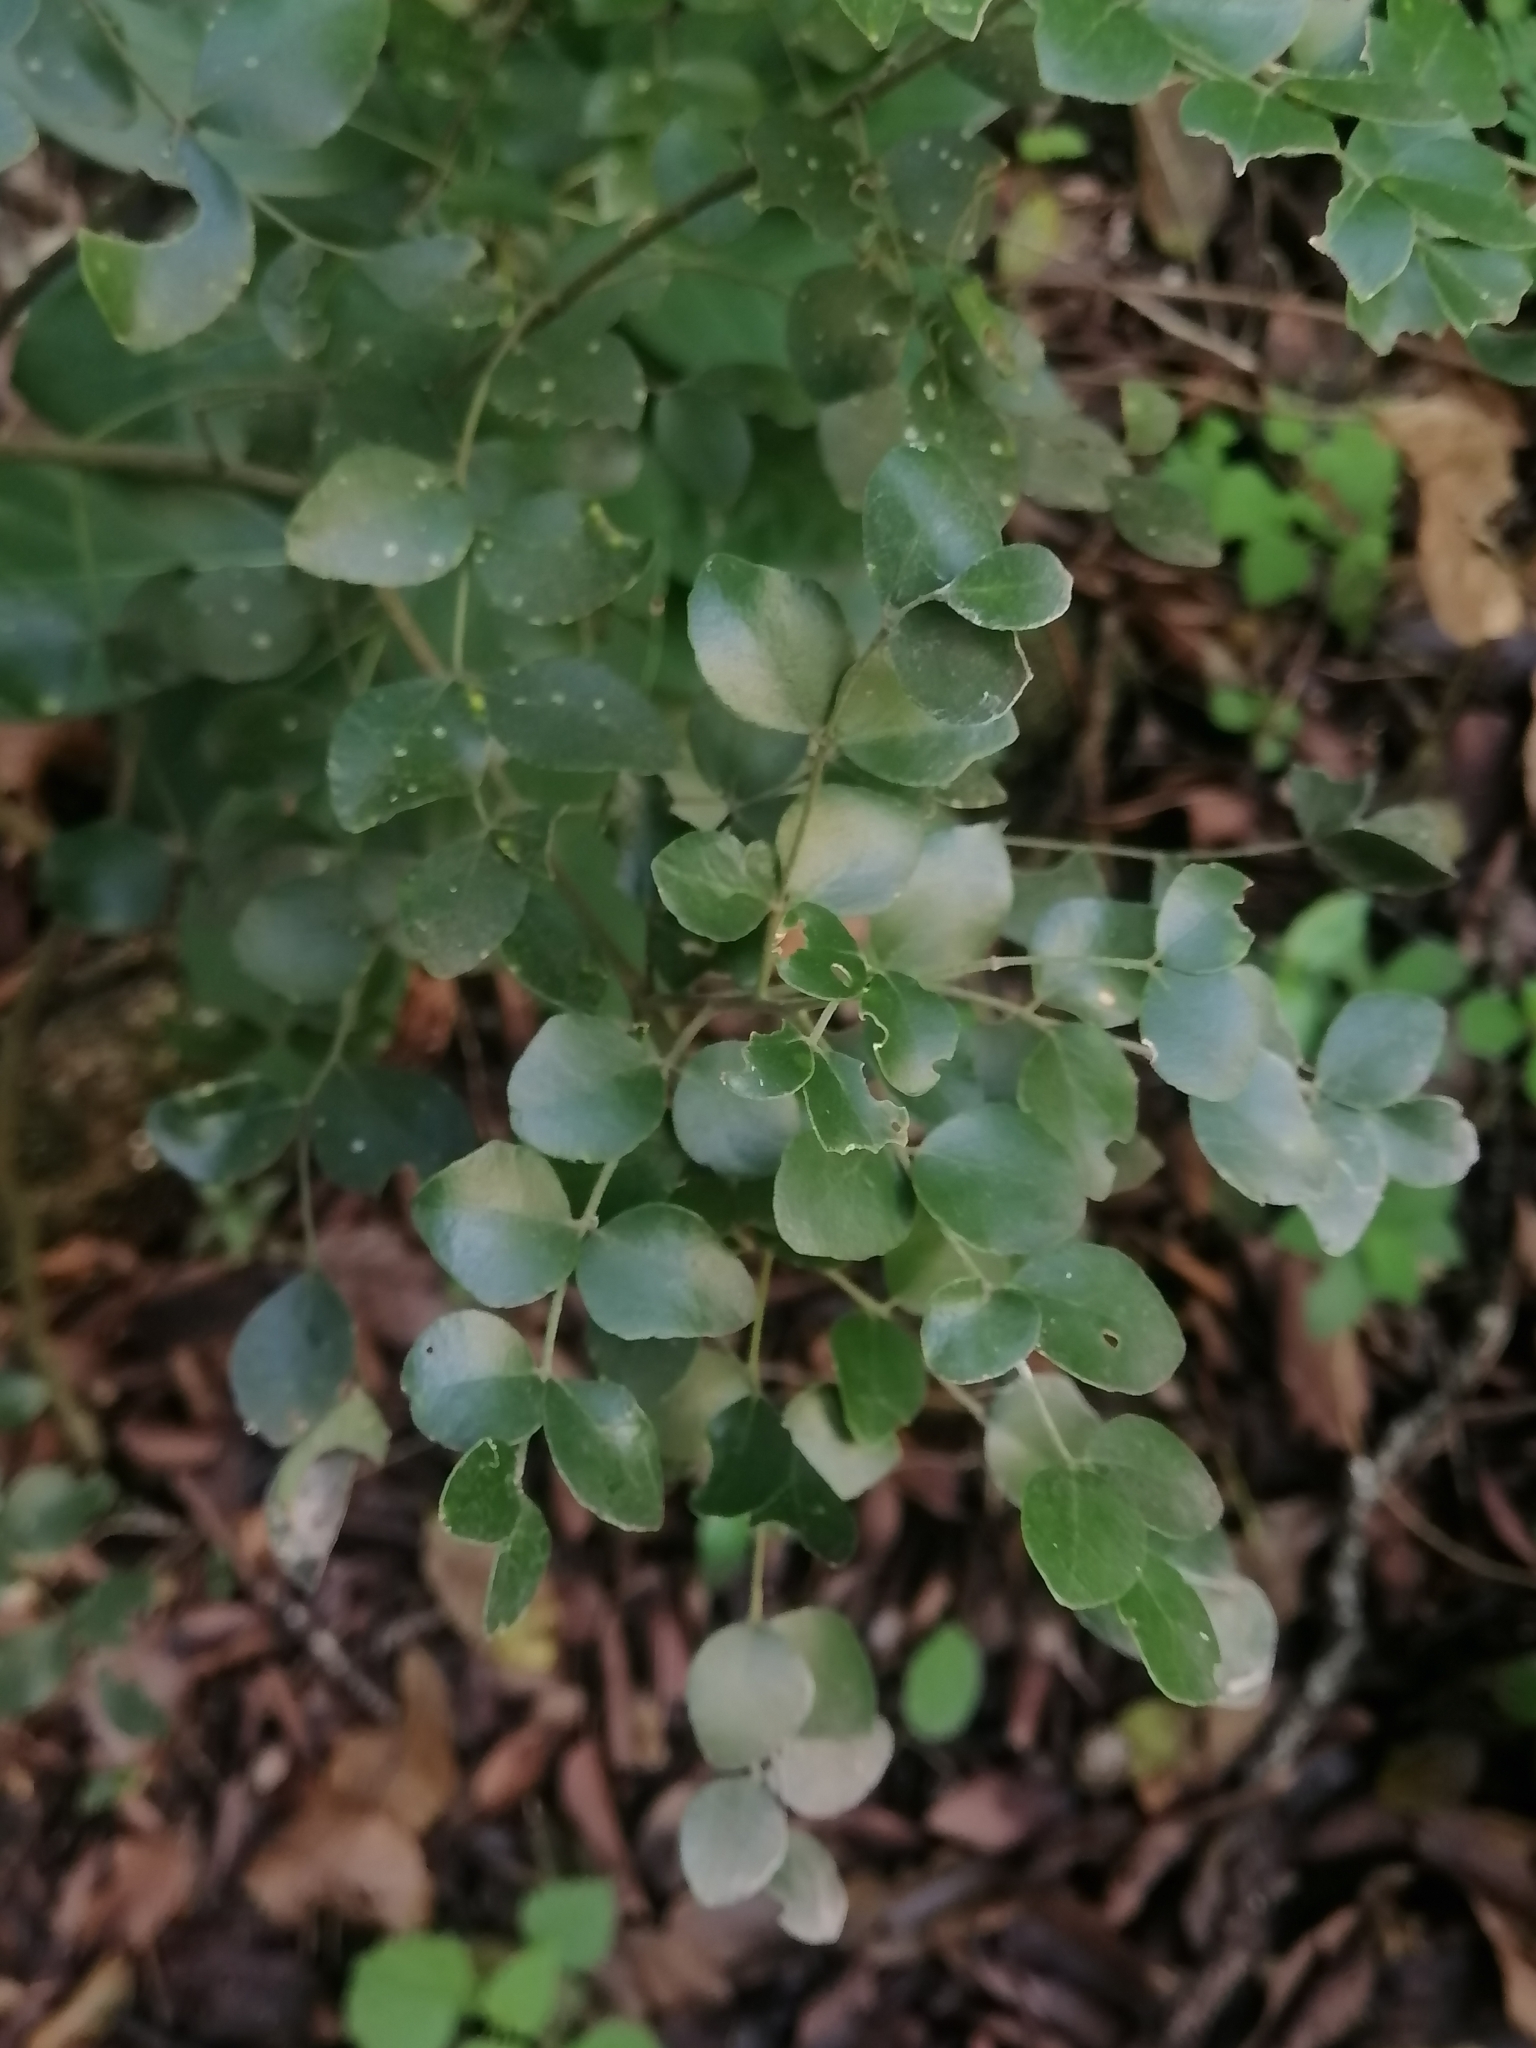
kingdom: Plantae
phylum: Tracheophyta
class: Magnoliopsida
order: Sapindales
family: Rutaceae
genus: Amyris
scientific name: Amyris madrensis
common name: Mountain torchwood
